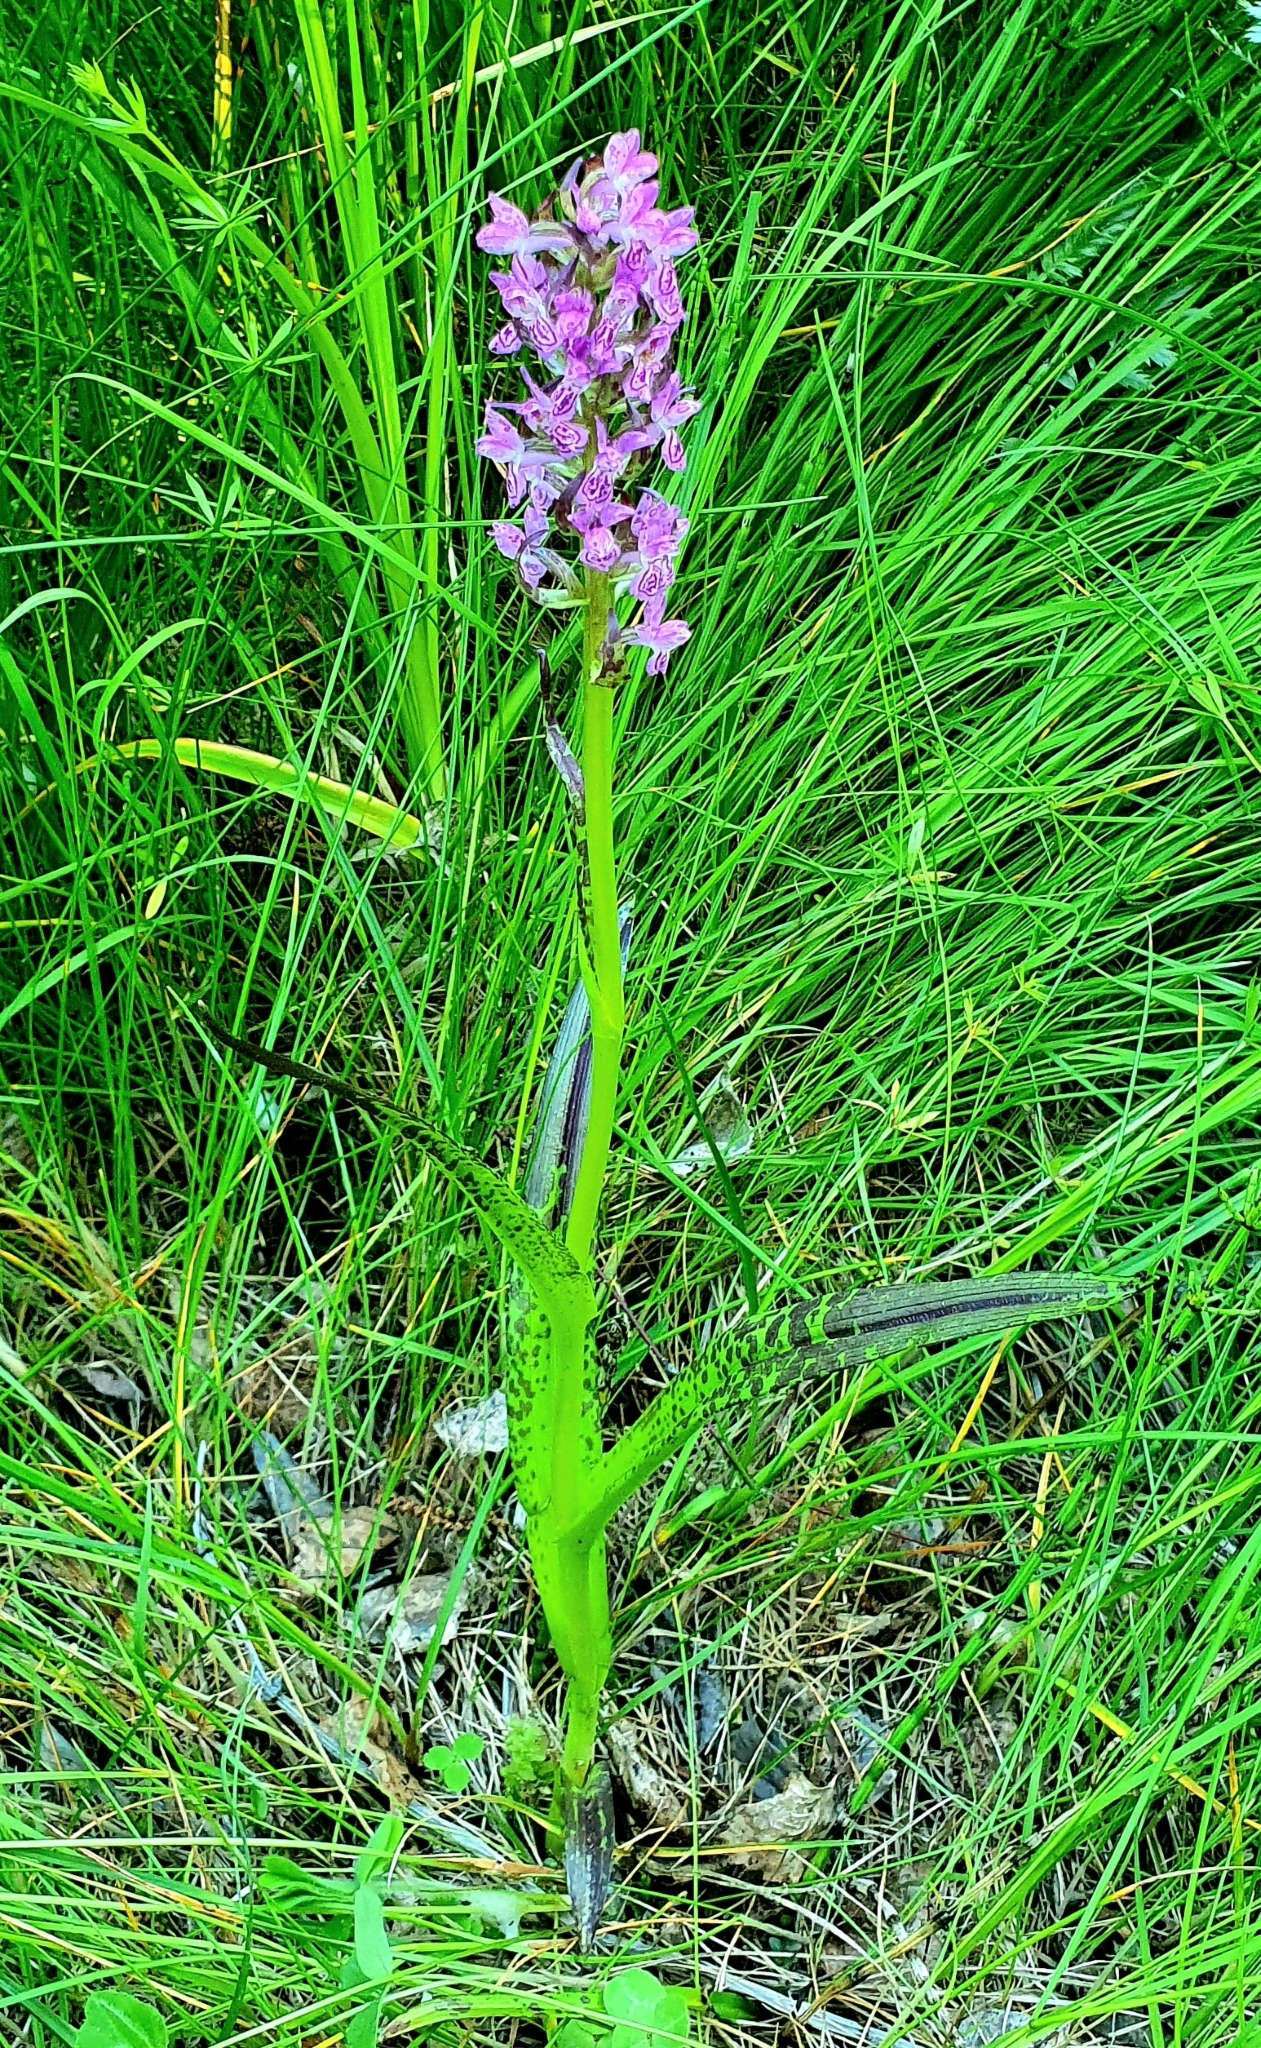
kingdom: Plantae
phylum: Tracheophyta
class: Liliopsida
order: Asparagales
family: Orchidaceae
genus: Dactylorhiza
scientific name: Dactylorhiza incarnata
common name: Early marsh-orchid
